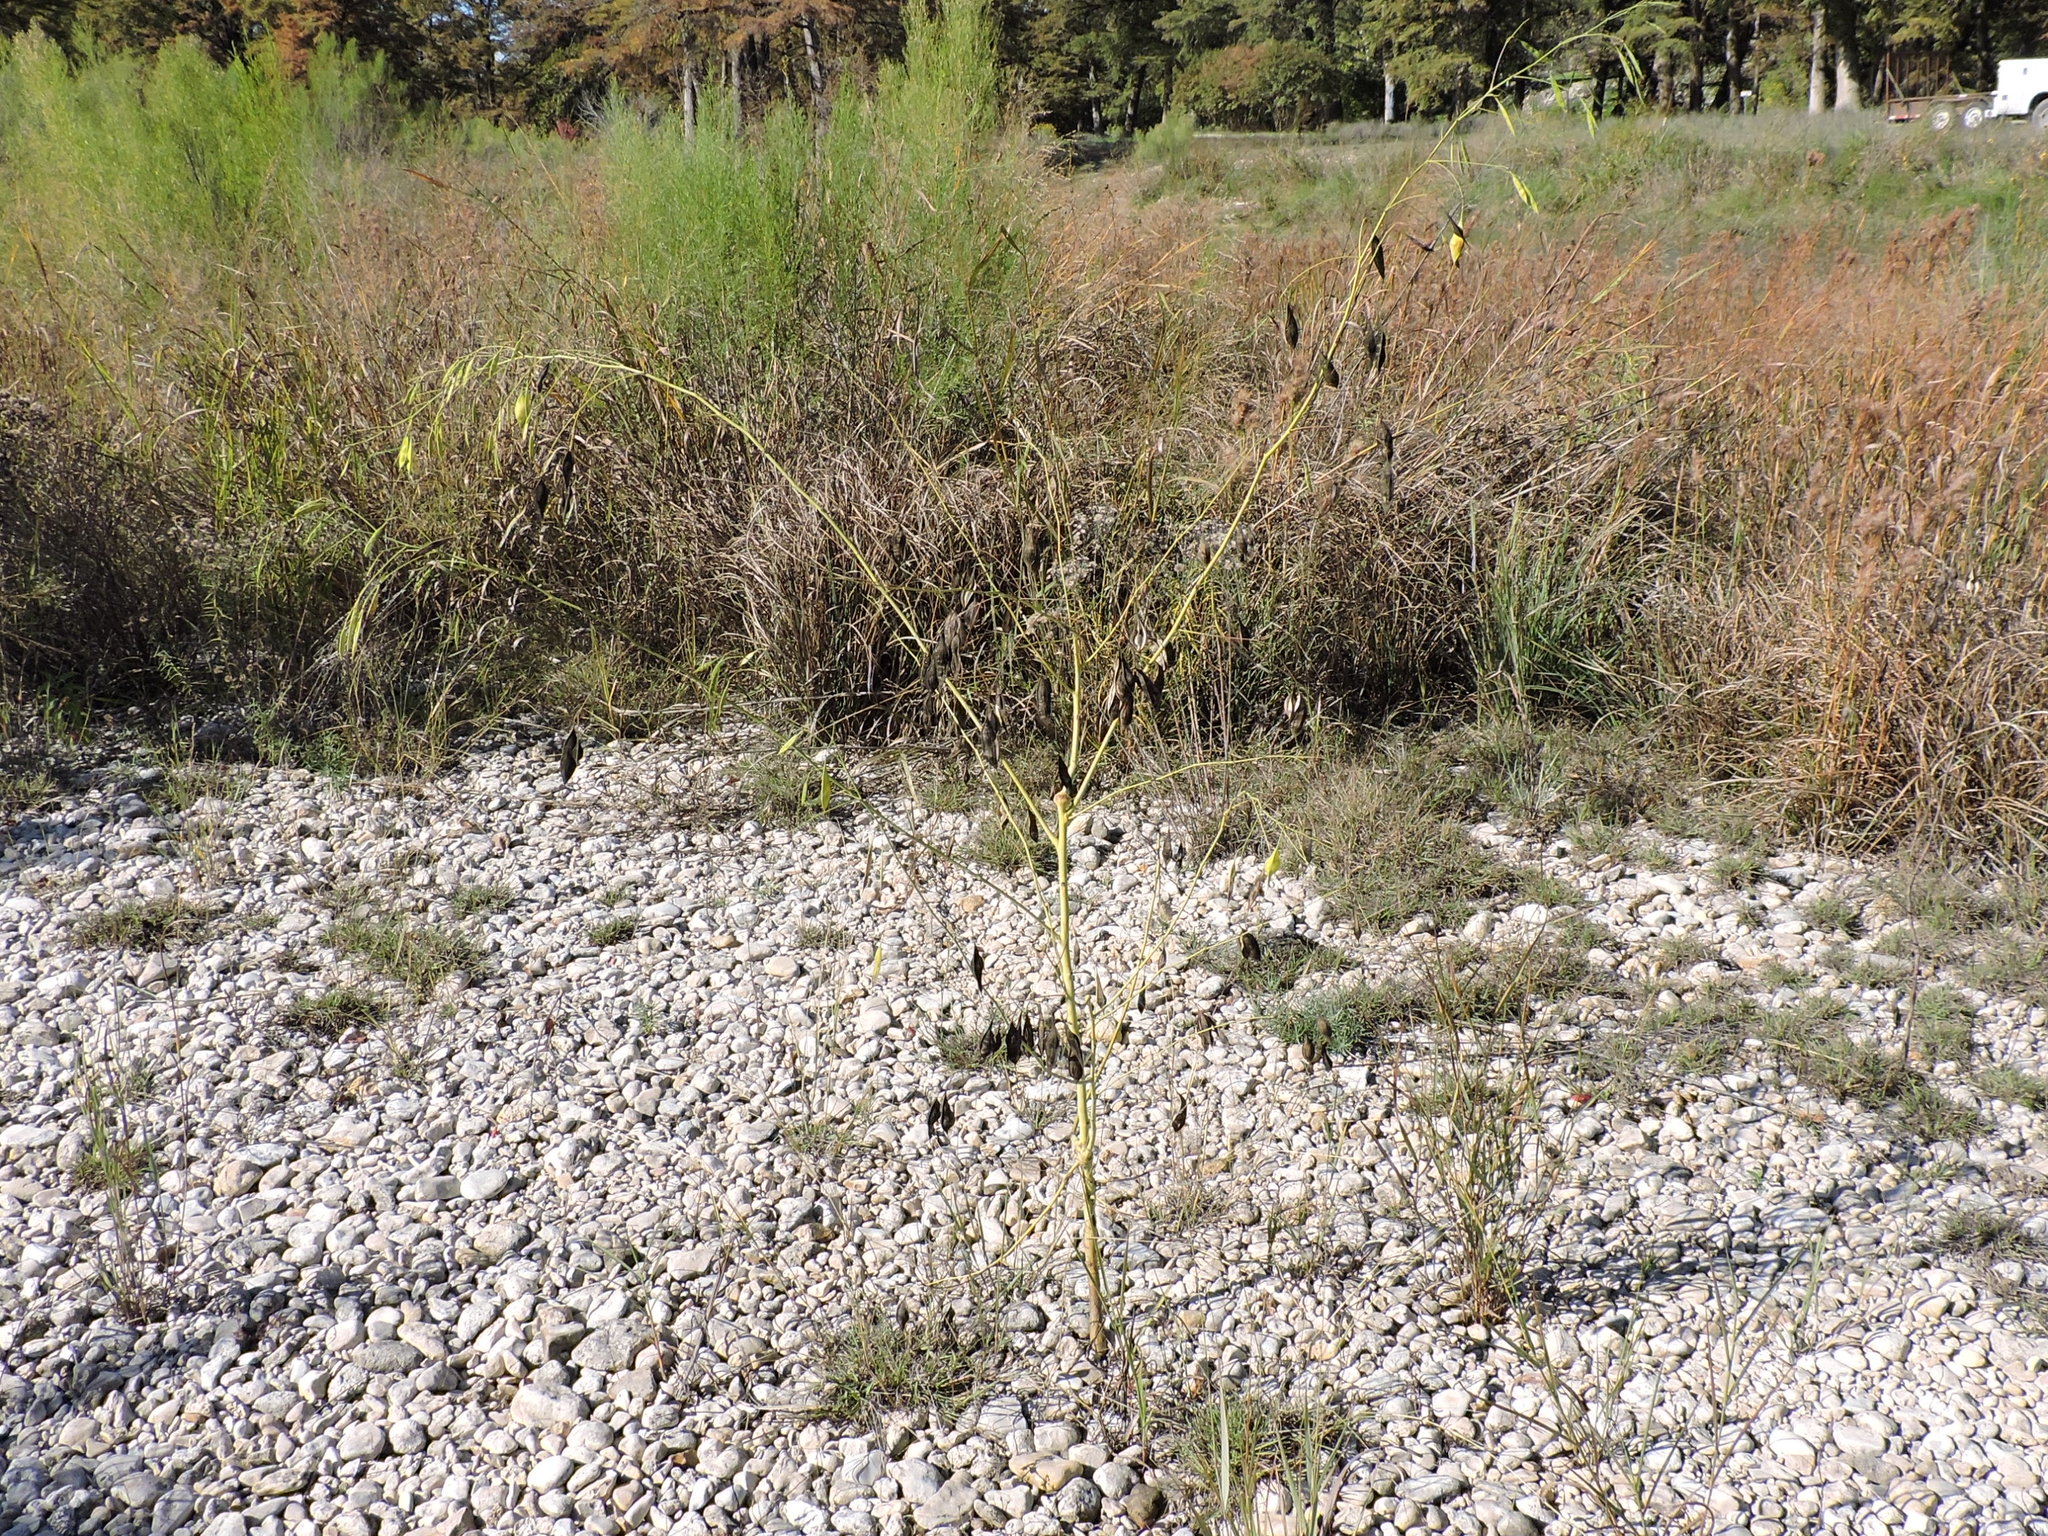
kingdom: Plantae
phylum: Tracheophyta
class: Magnoliopsida
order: Fabales
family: Fabaceae
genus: Sesbania
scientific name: Sesbania vesicaria
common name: Bagpod
